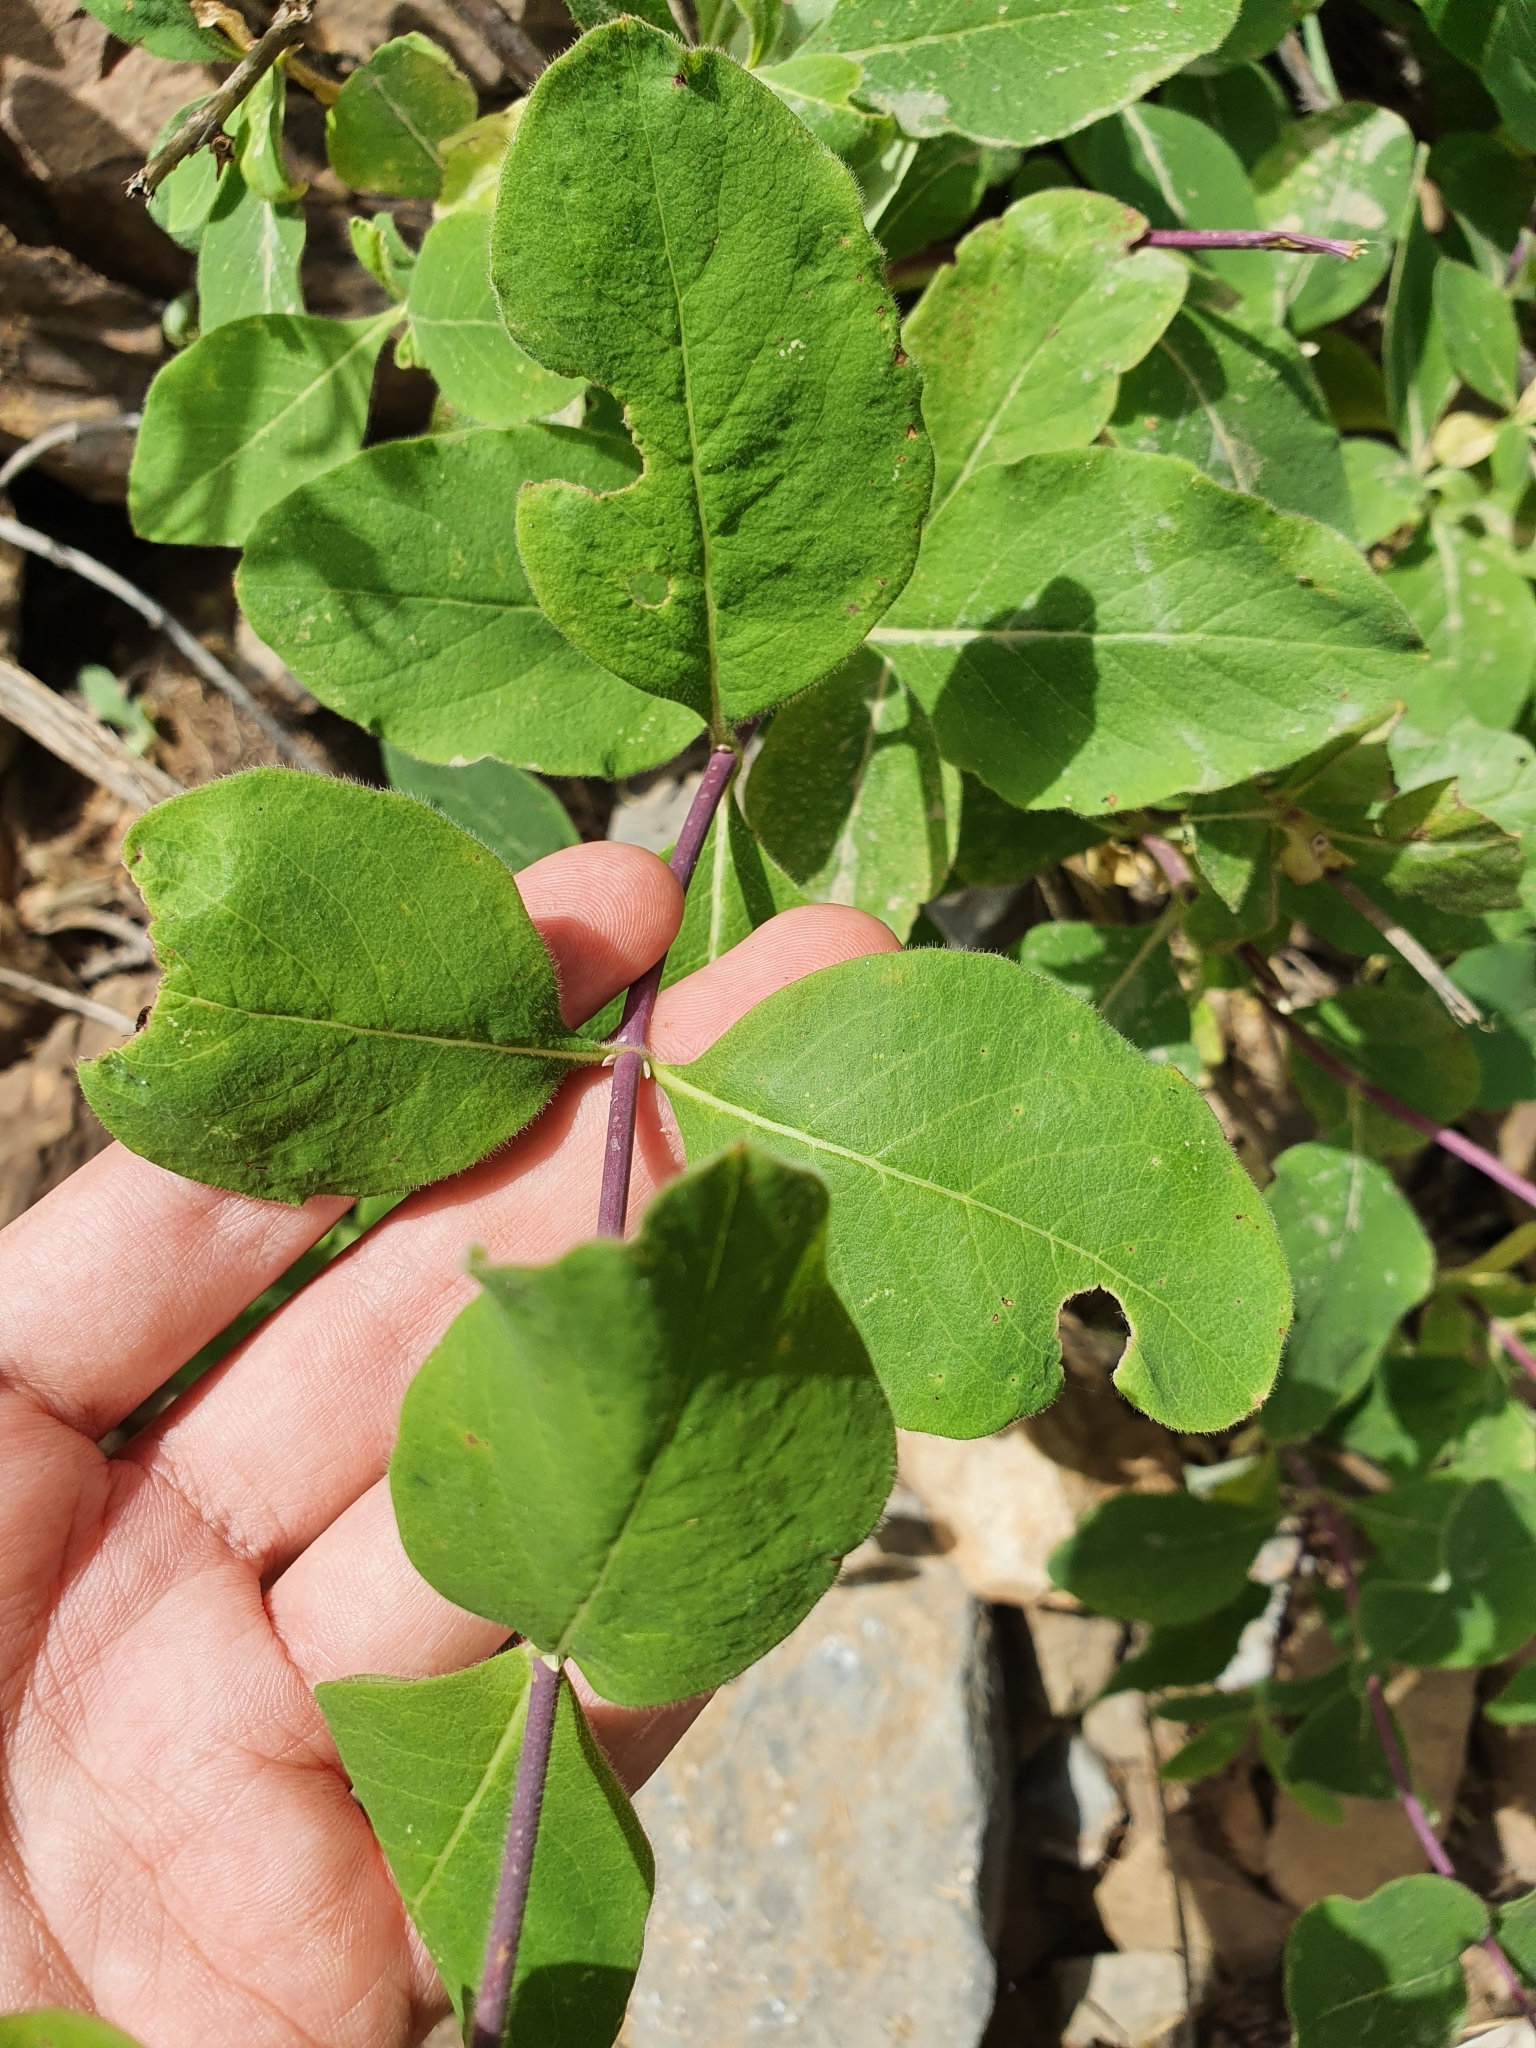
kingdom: Plantae
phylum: Tracheophyta
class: Magnoliopsida
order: Dipsacales
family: Caprifoliaceae
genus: Lonicera
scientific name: Lonicera etrusca
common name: Etruscan honeysuckle
